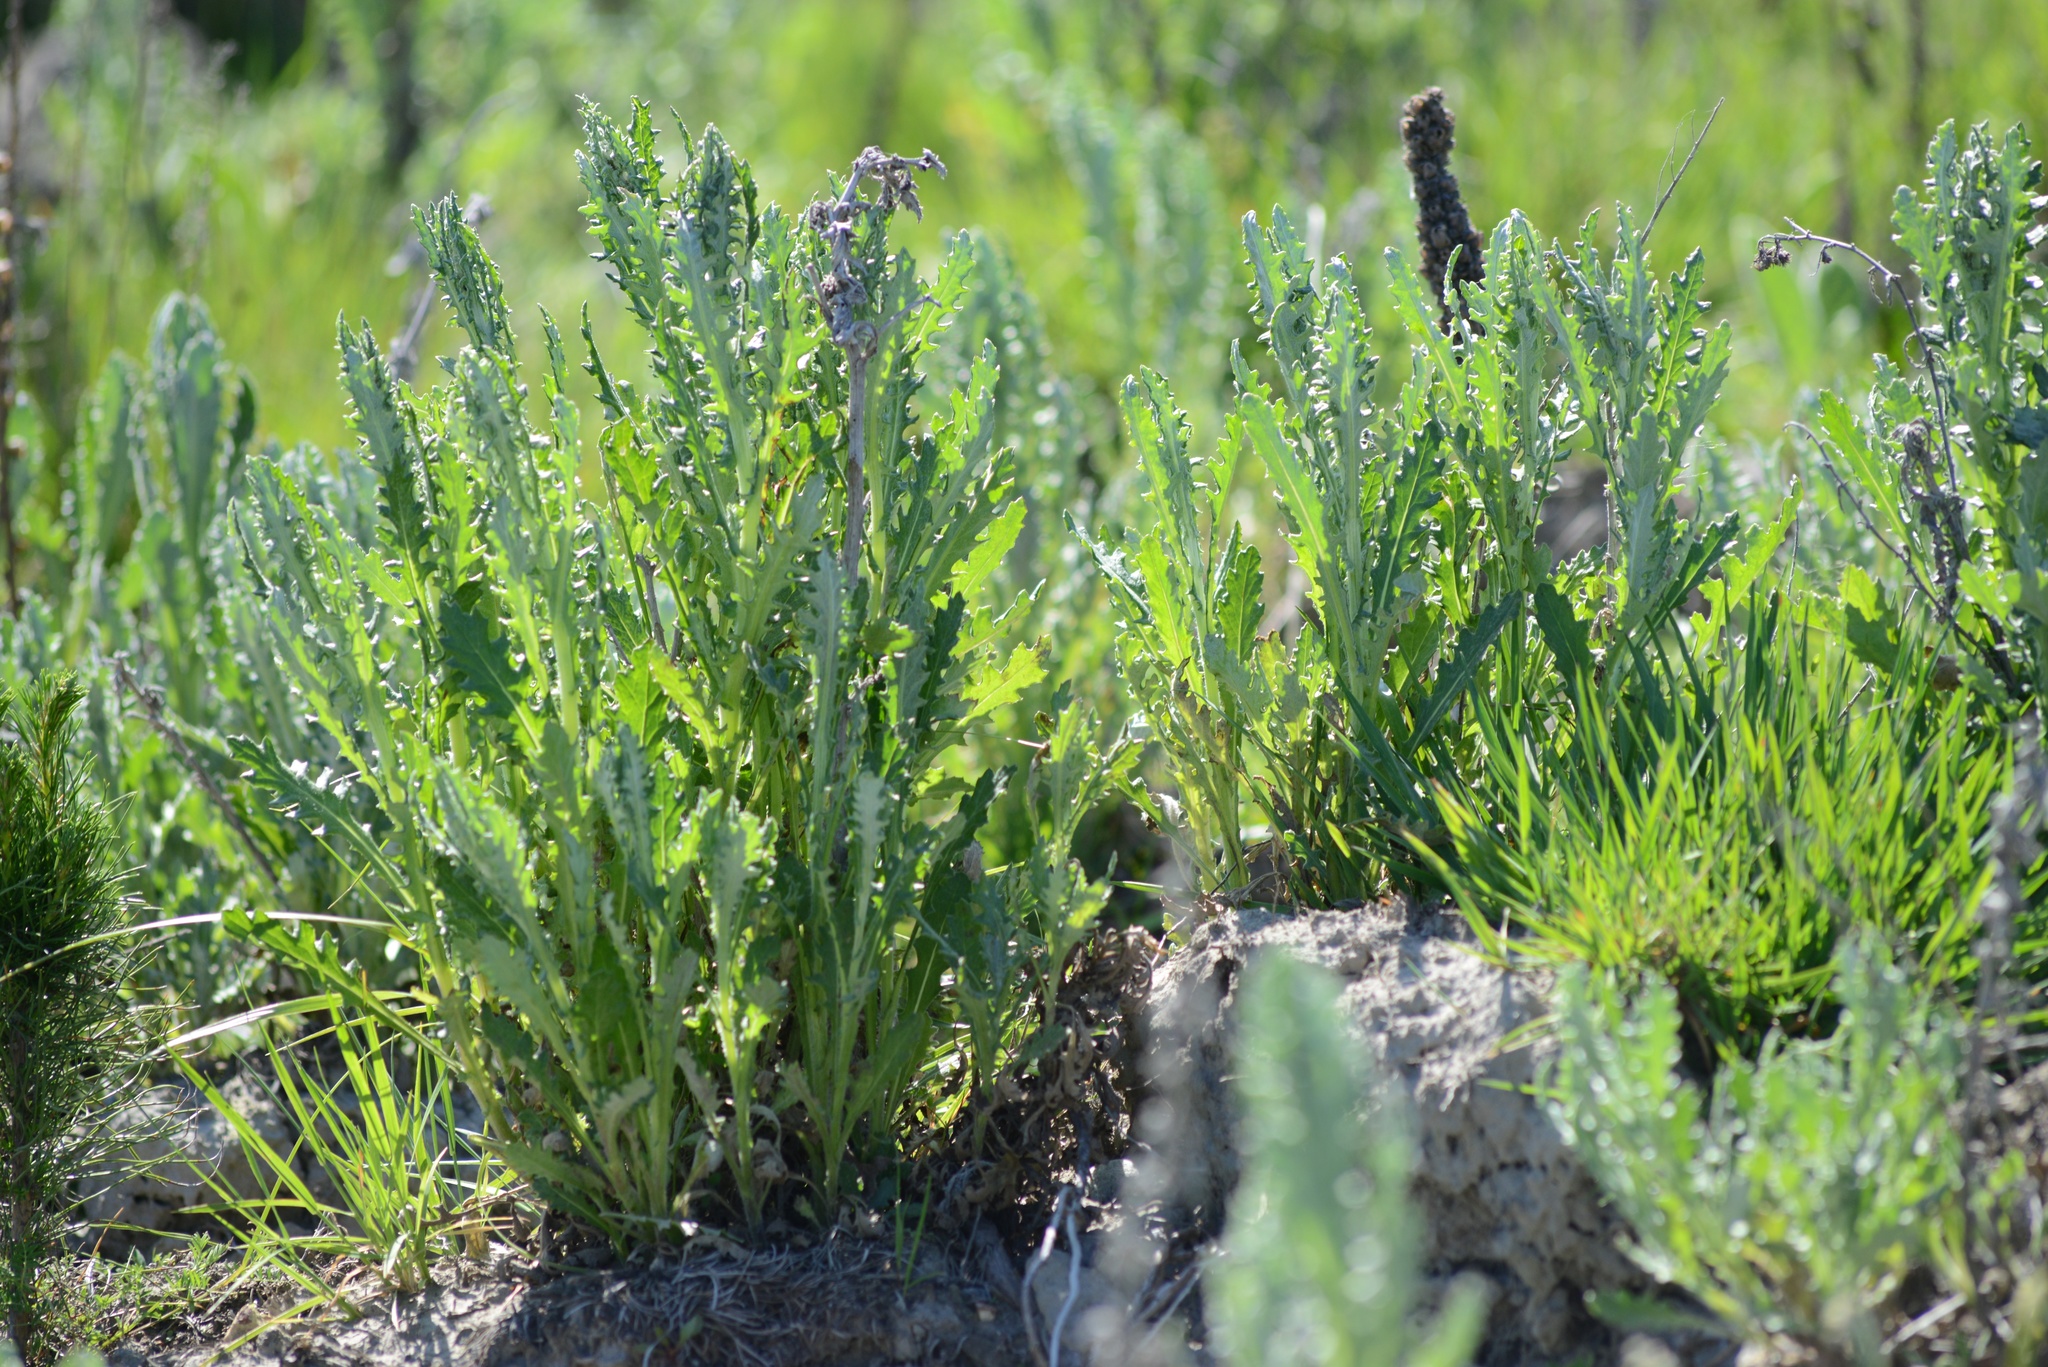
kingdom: Plantae
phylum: Tracheophyta
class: Magnoliopsida
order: Asterales
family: Asteraceae
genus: Senecio
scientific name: Senecio glomeratus
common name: Cutleaf burnweed
